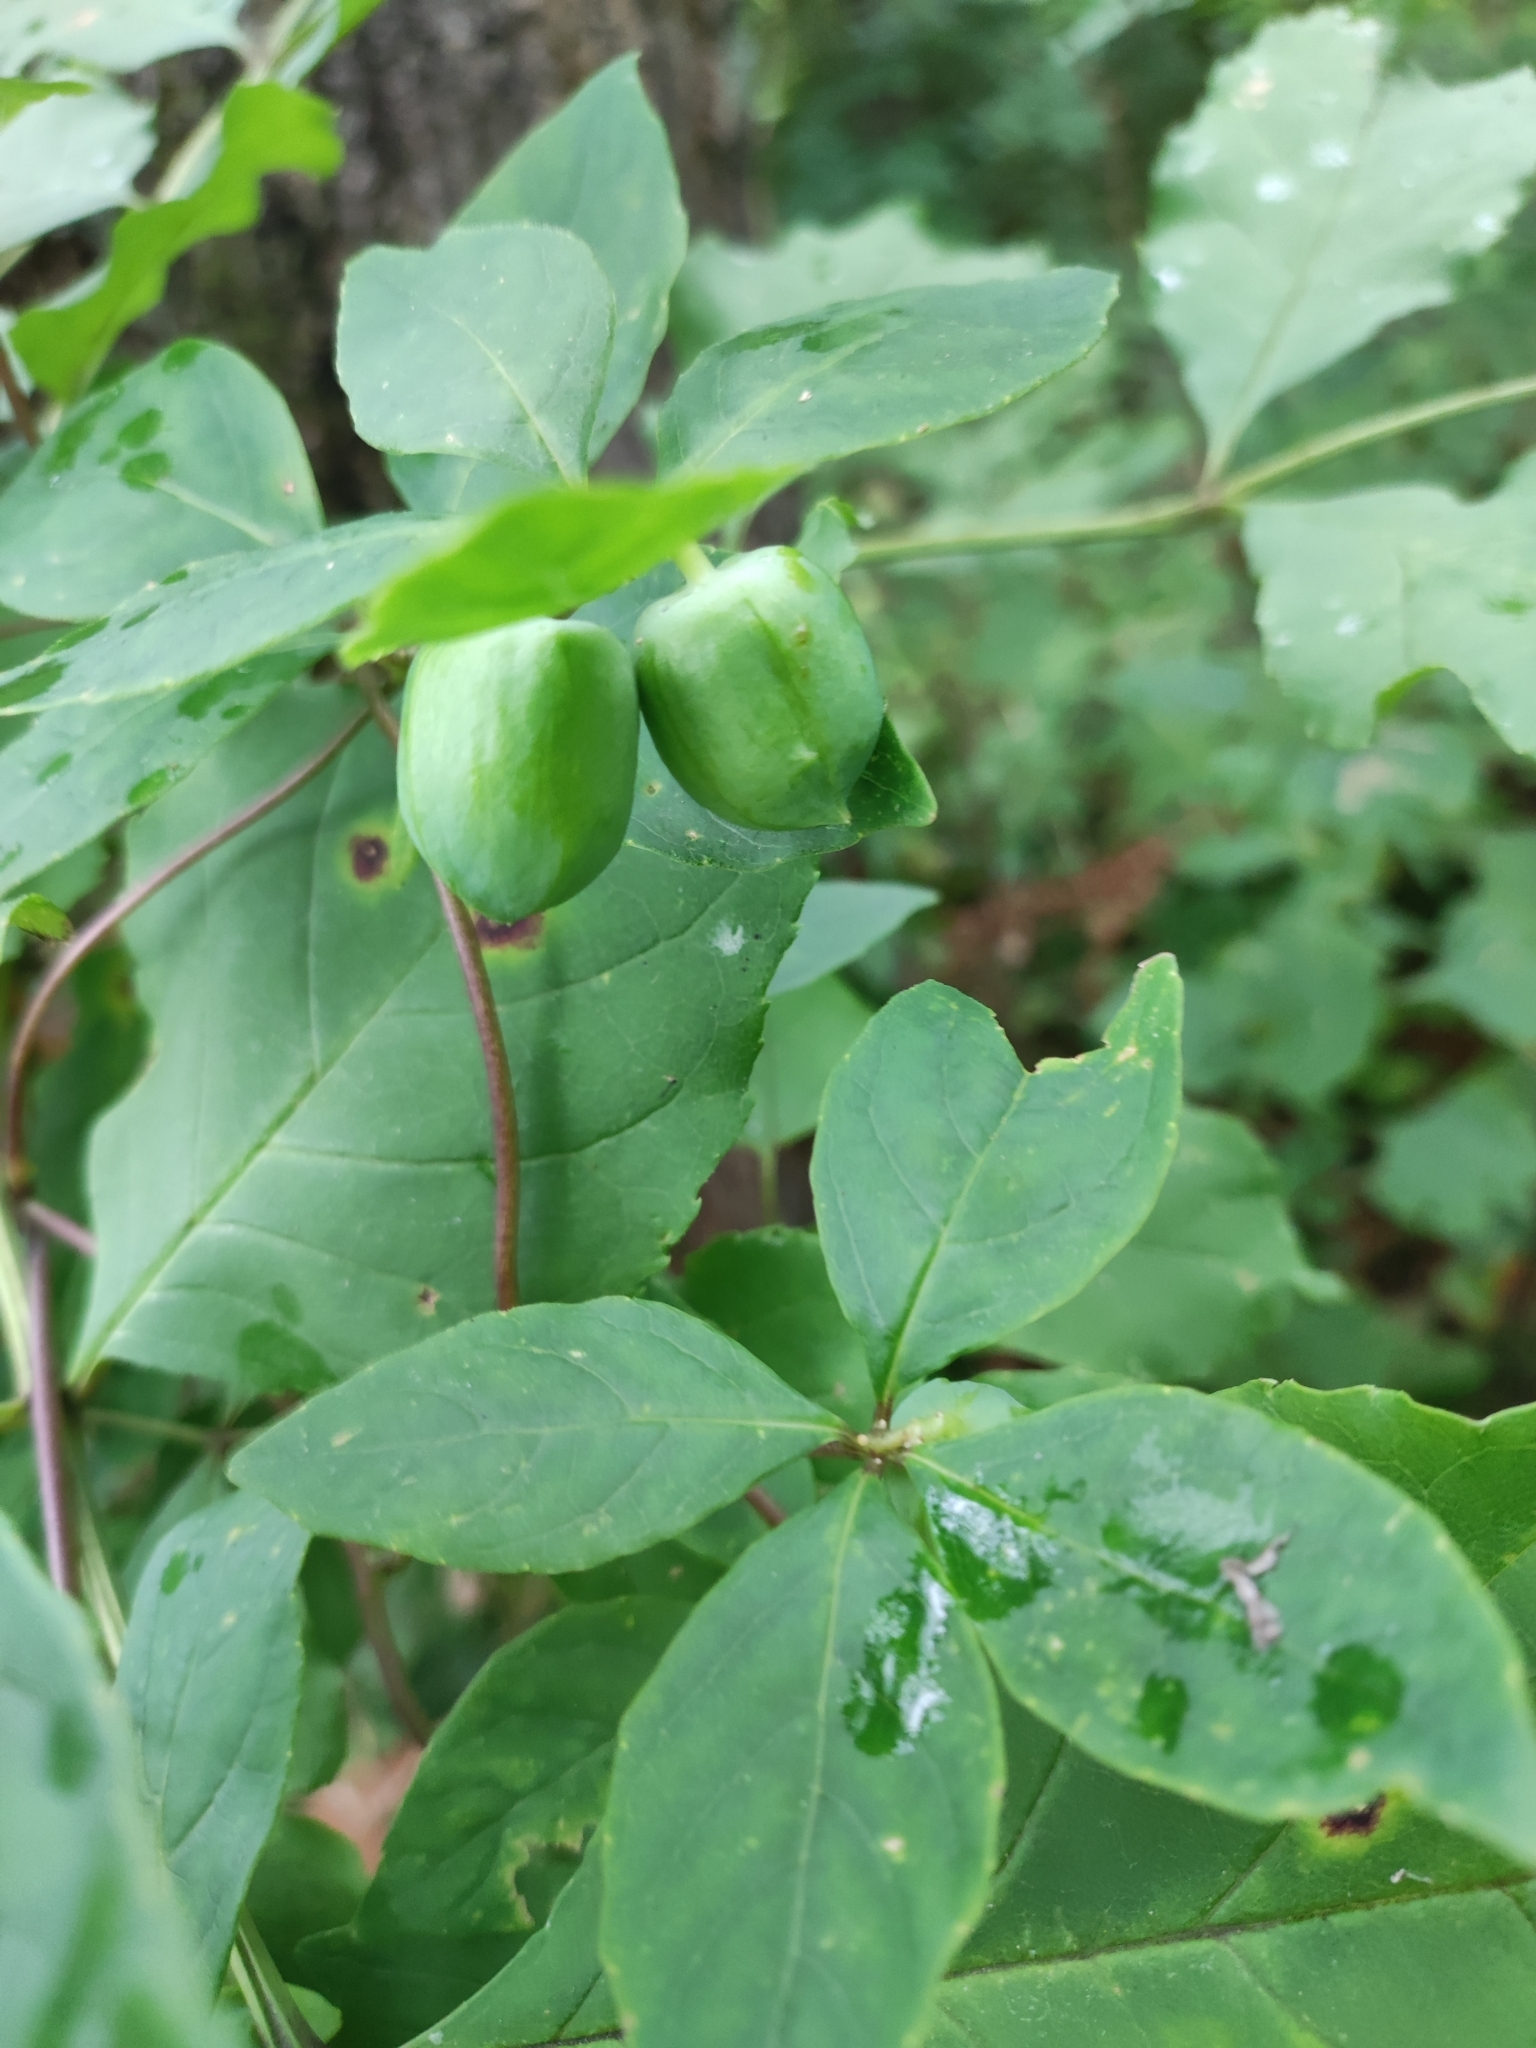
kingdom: Plantae
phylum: Tracheophyta
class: Magnoliopsida
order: Asterales
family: Campanulaceae
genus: Codonopsis
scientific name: Codonopsis lanceolata
